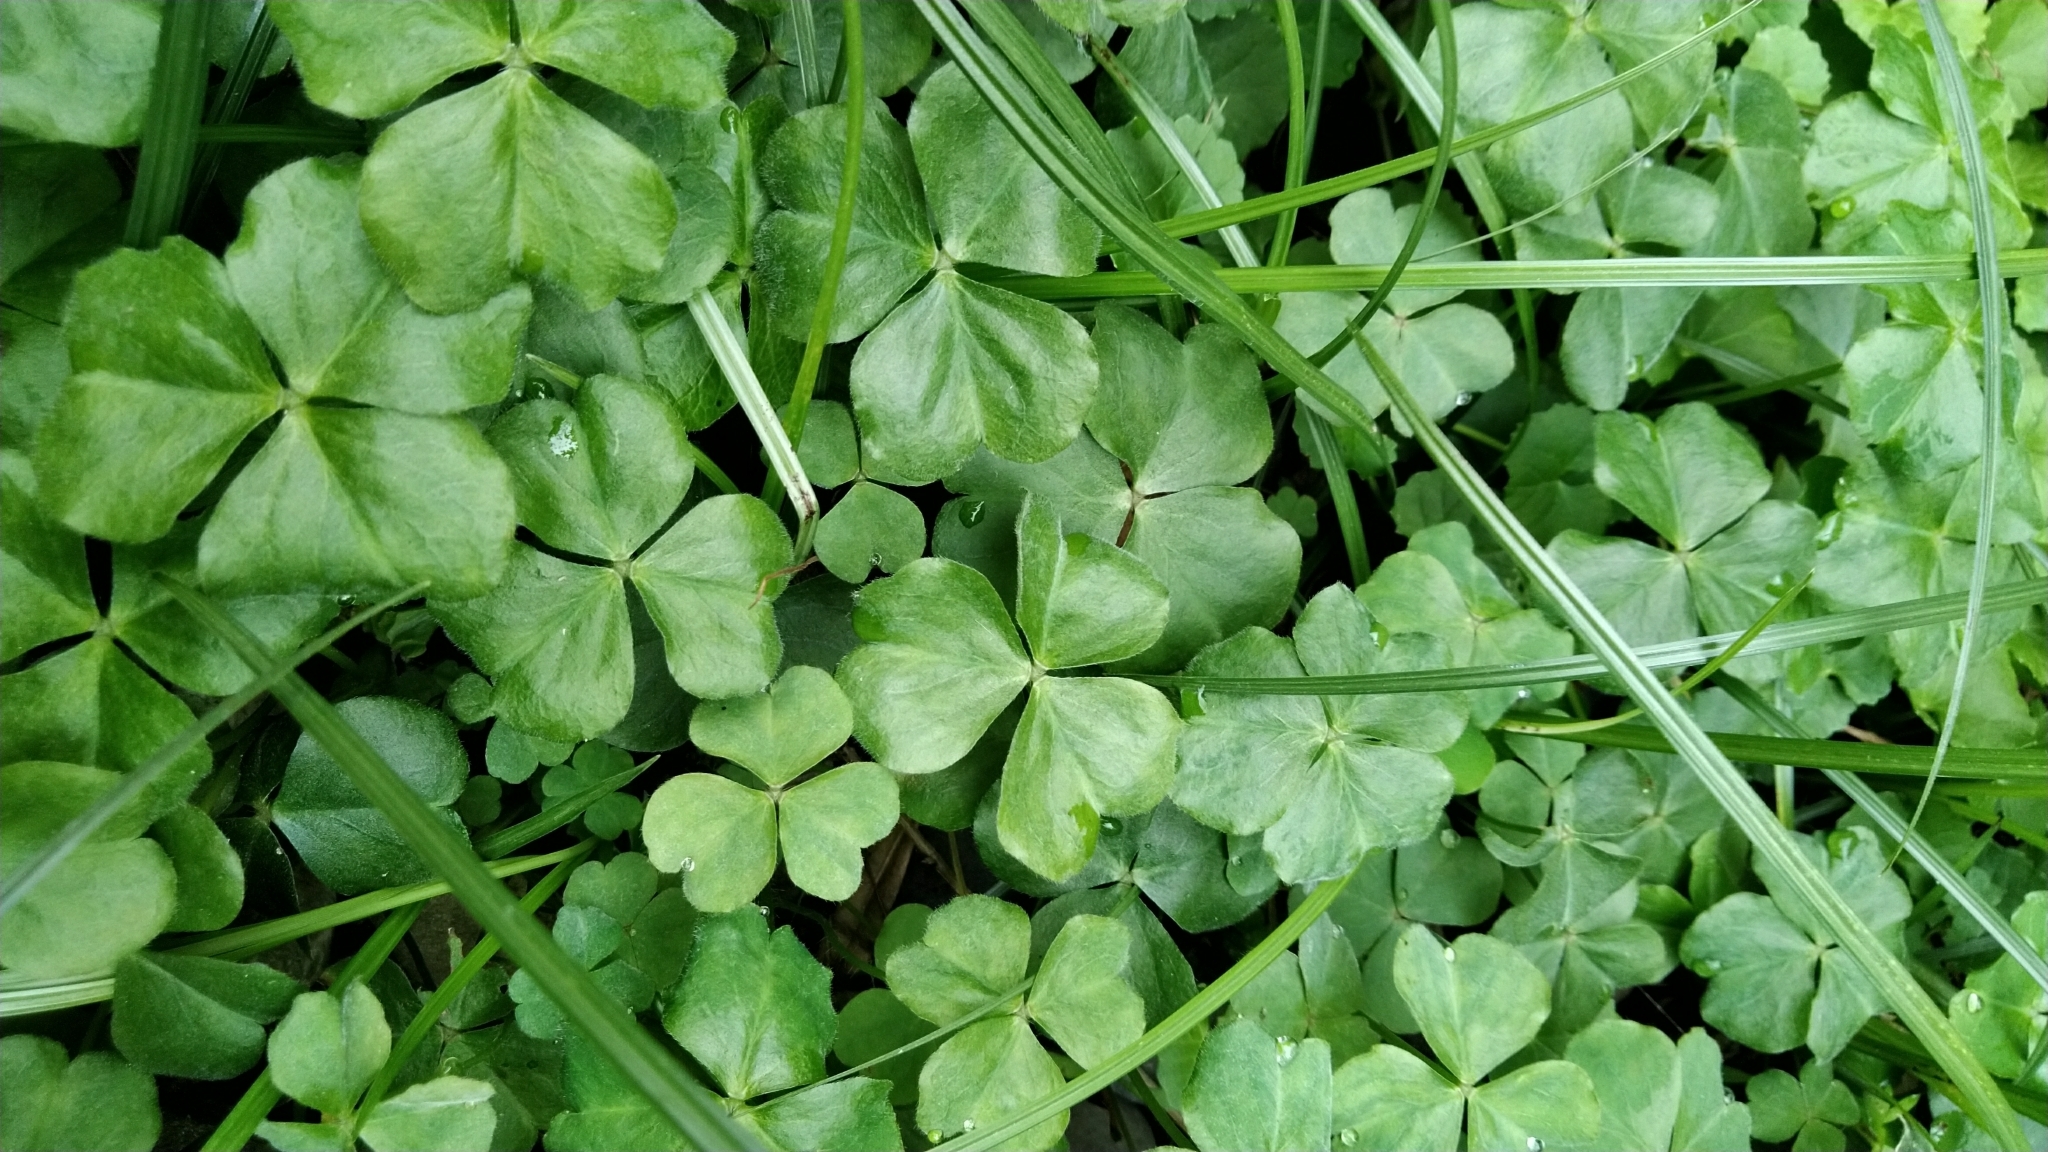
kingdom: Plantae
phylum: Tracheophyta
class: Magnoliopsida
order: Oxalidales
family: Oxalidaceae
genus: Oxalis
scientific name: Oxalis debilis
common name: Large-flowered pink-sorrel
